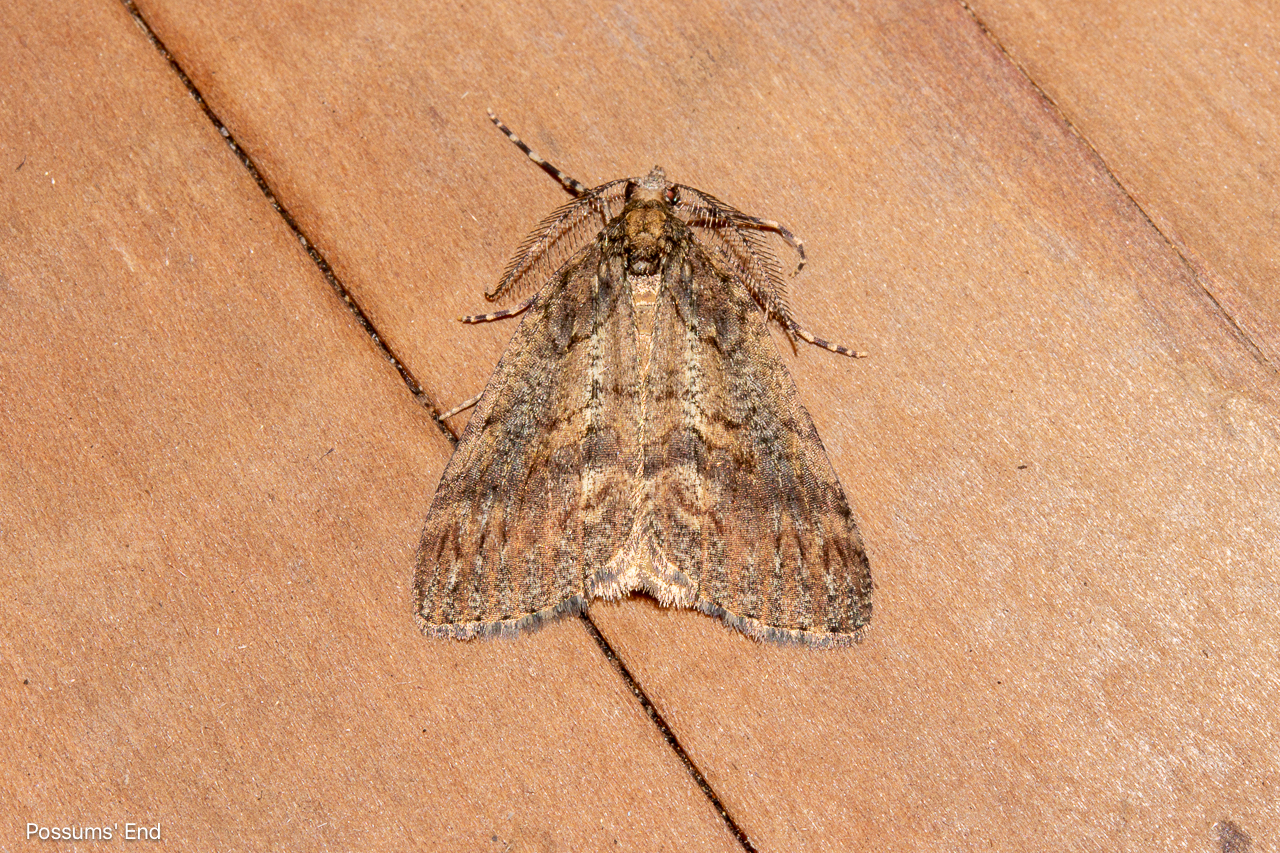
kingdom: Animalia
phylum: Arthropoda
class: Insecta
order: Lepidoptera
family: Geometridae
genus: Chalastra
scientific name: Chalastra ochrea
